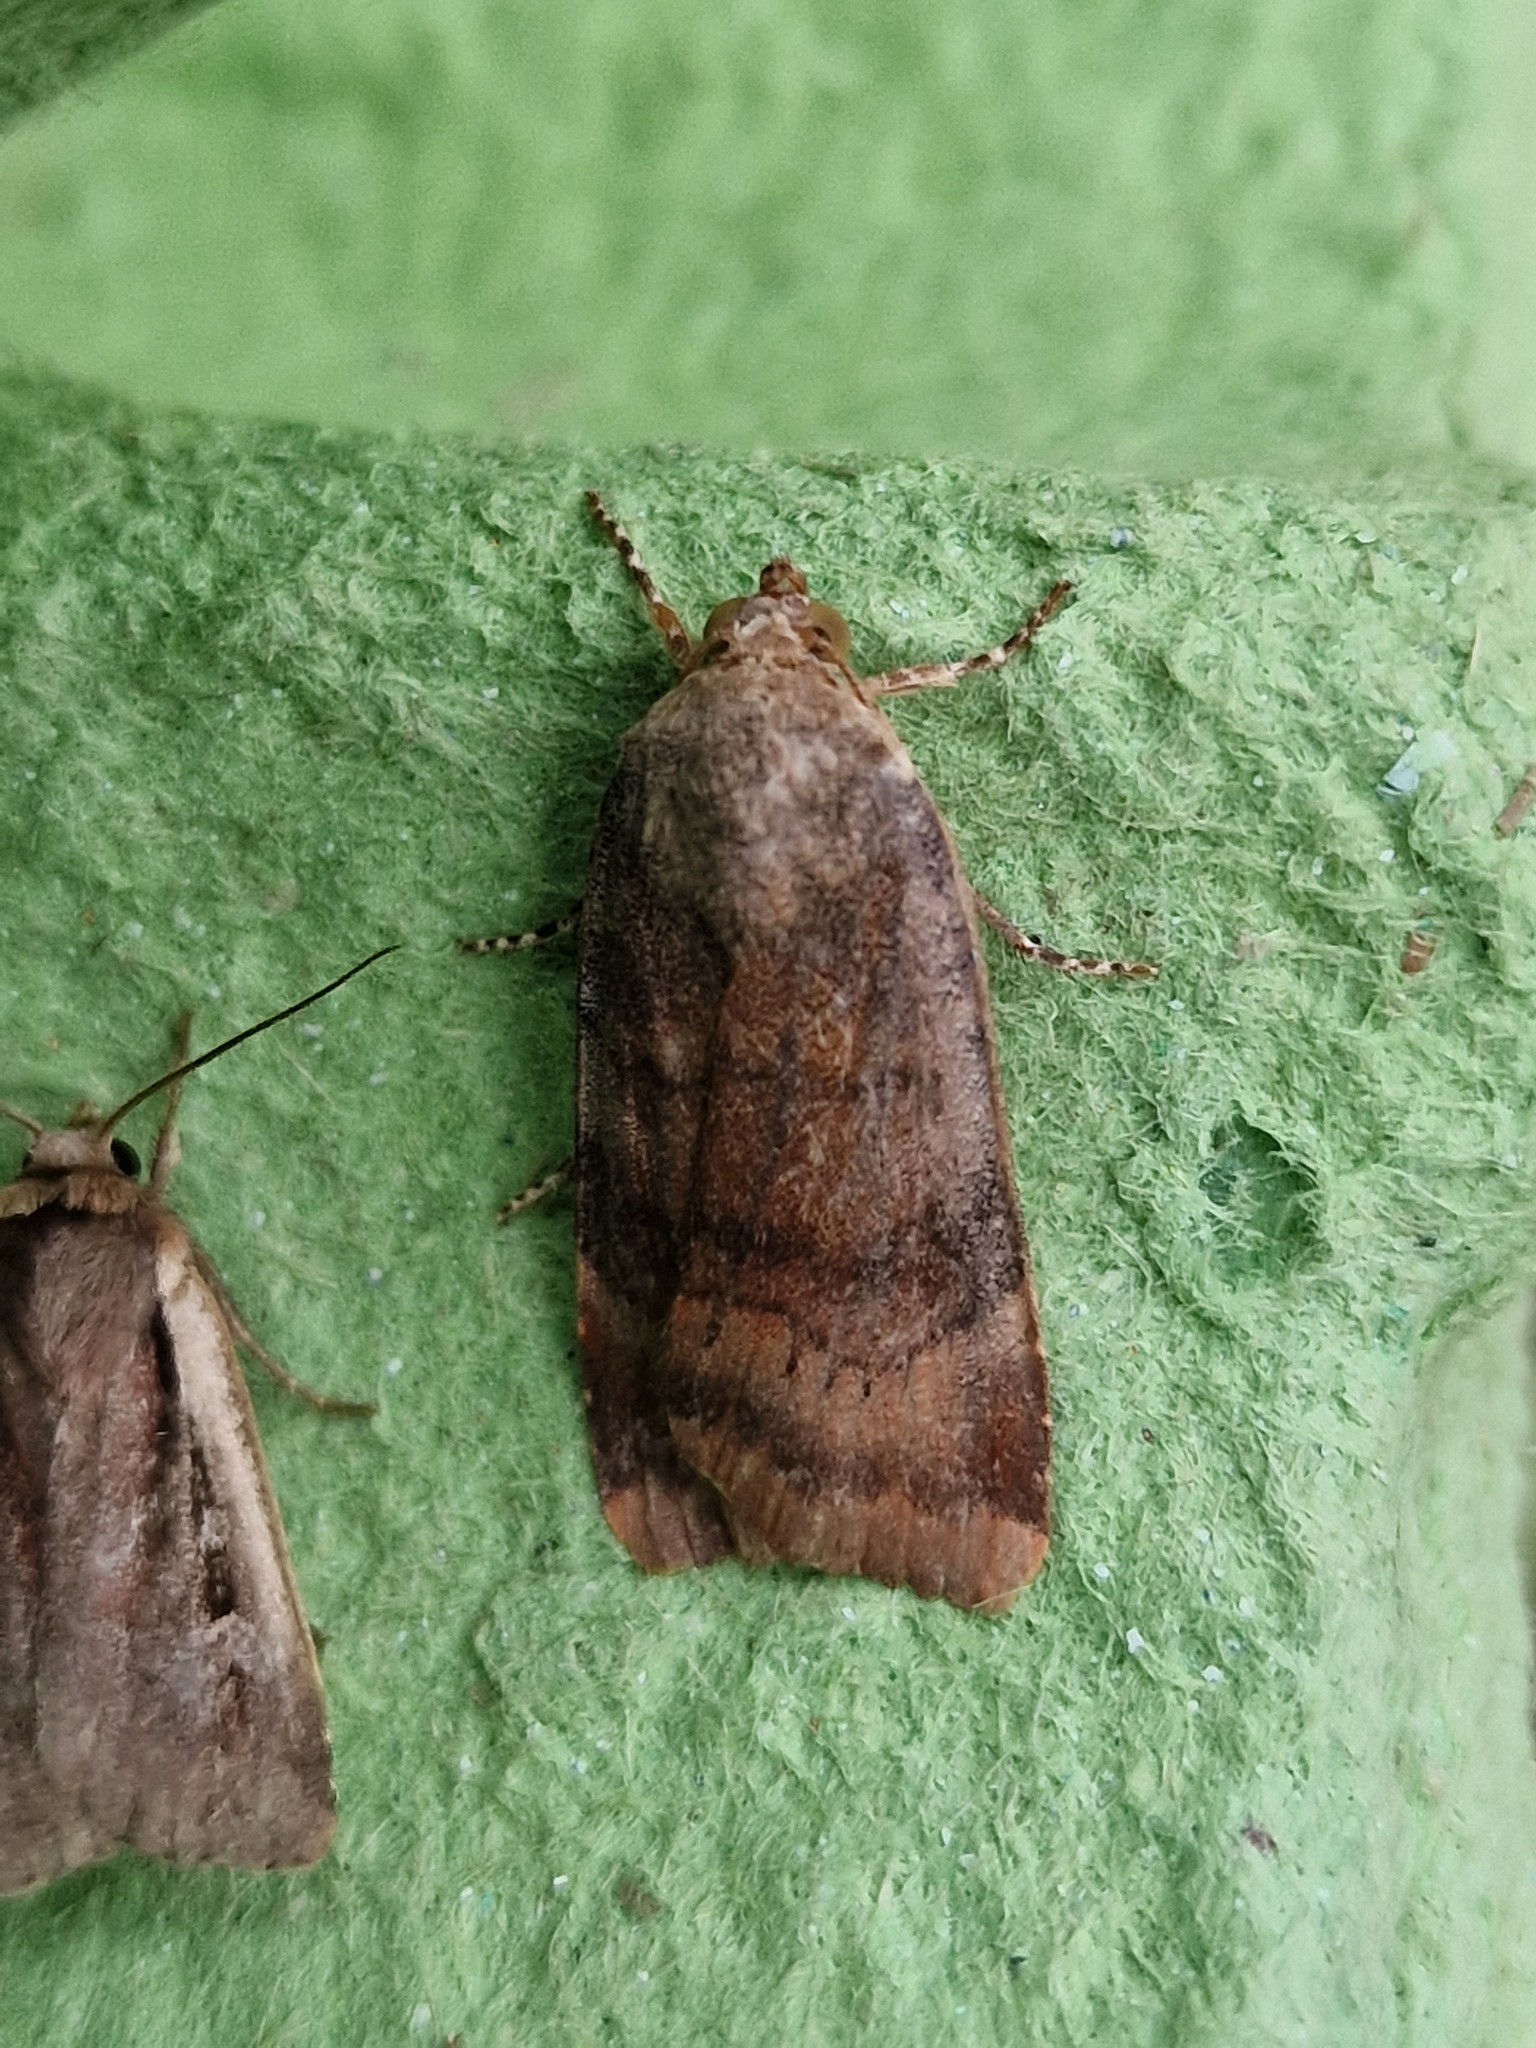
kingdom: Animalia
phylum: Arthropoda
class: Insecta
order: Lepidoptera
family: Noctuidae
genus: Noctua
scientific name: Noctua
